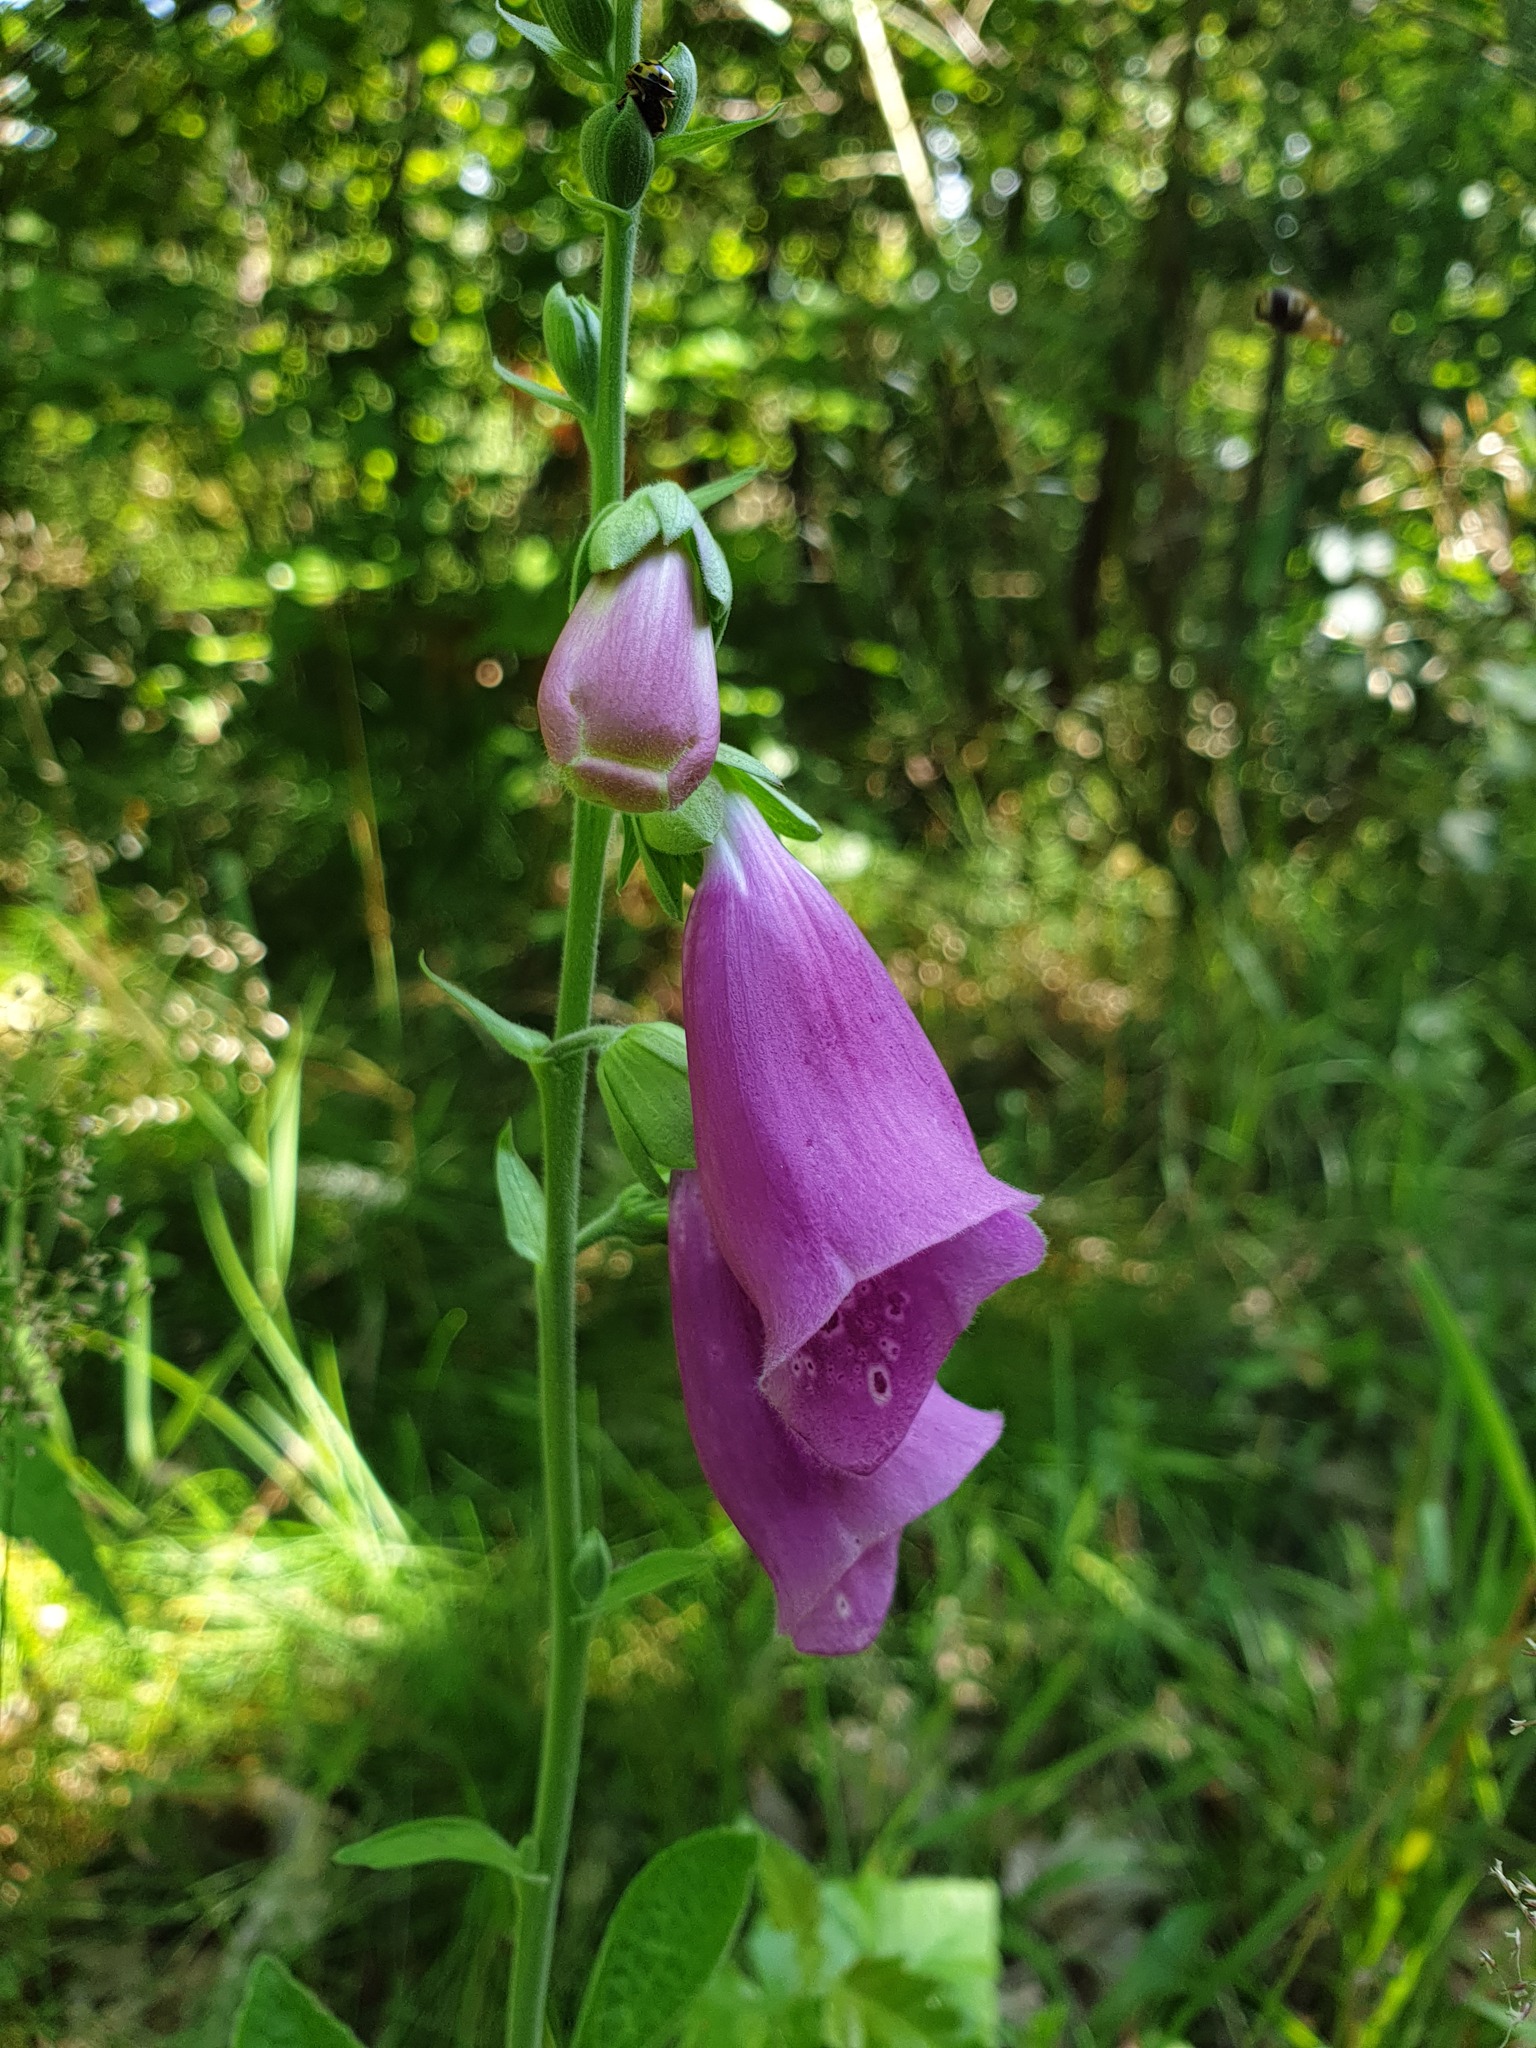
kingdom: Plantae
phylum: Tracheophyta
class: Magnoliopsida
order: Lamiales
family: Plantaginaceae
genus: Digitalis
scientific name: Digitalis purpurea
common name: Foxglove
